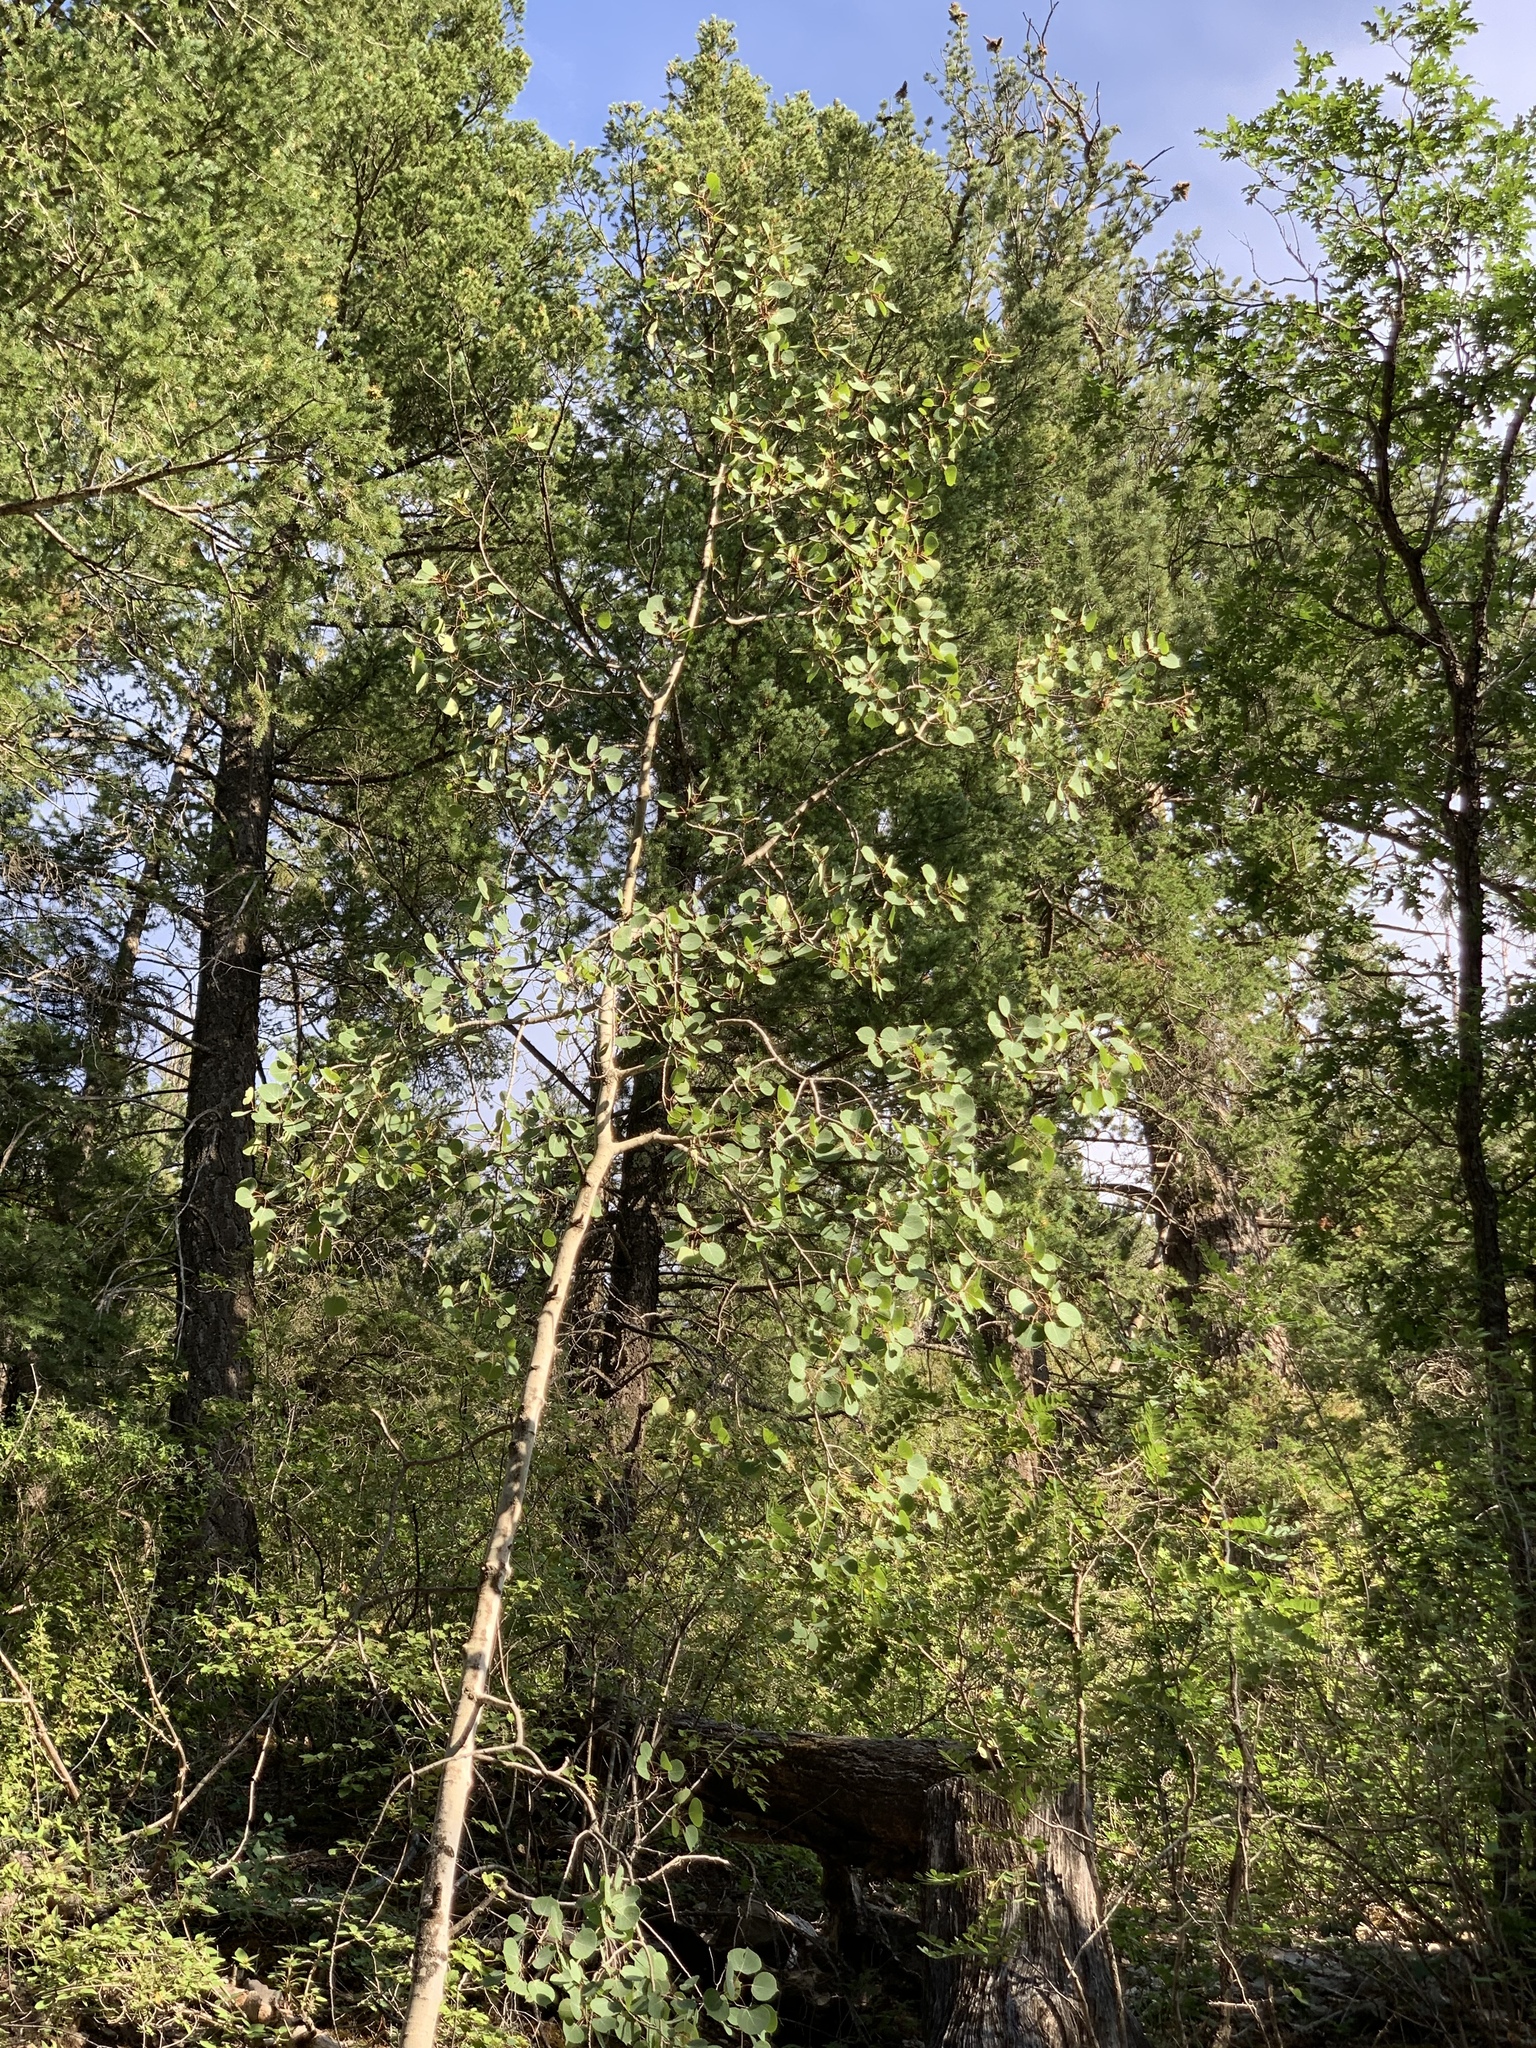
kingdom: Plantae
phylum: Tracheophyta
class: Magnoliopsida
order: Malpighiales
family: Salicaceae
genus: Populus
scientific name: Populus tremuloides
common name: Quaking aspen
